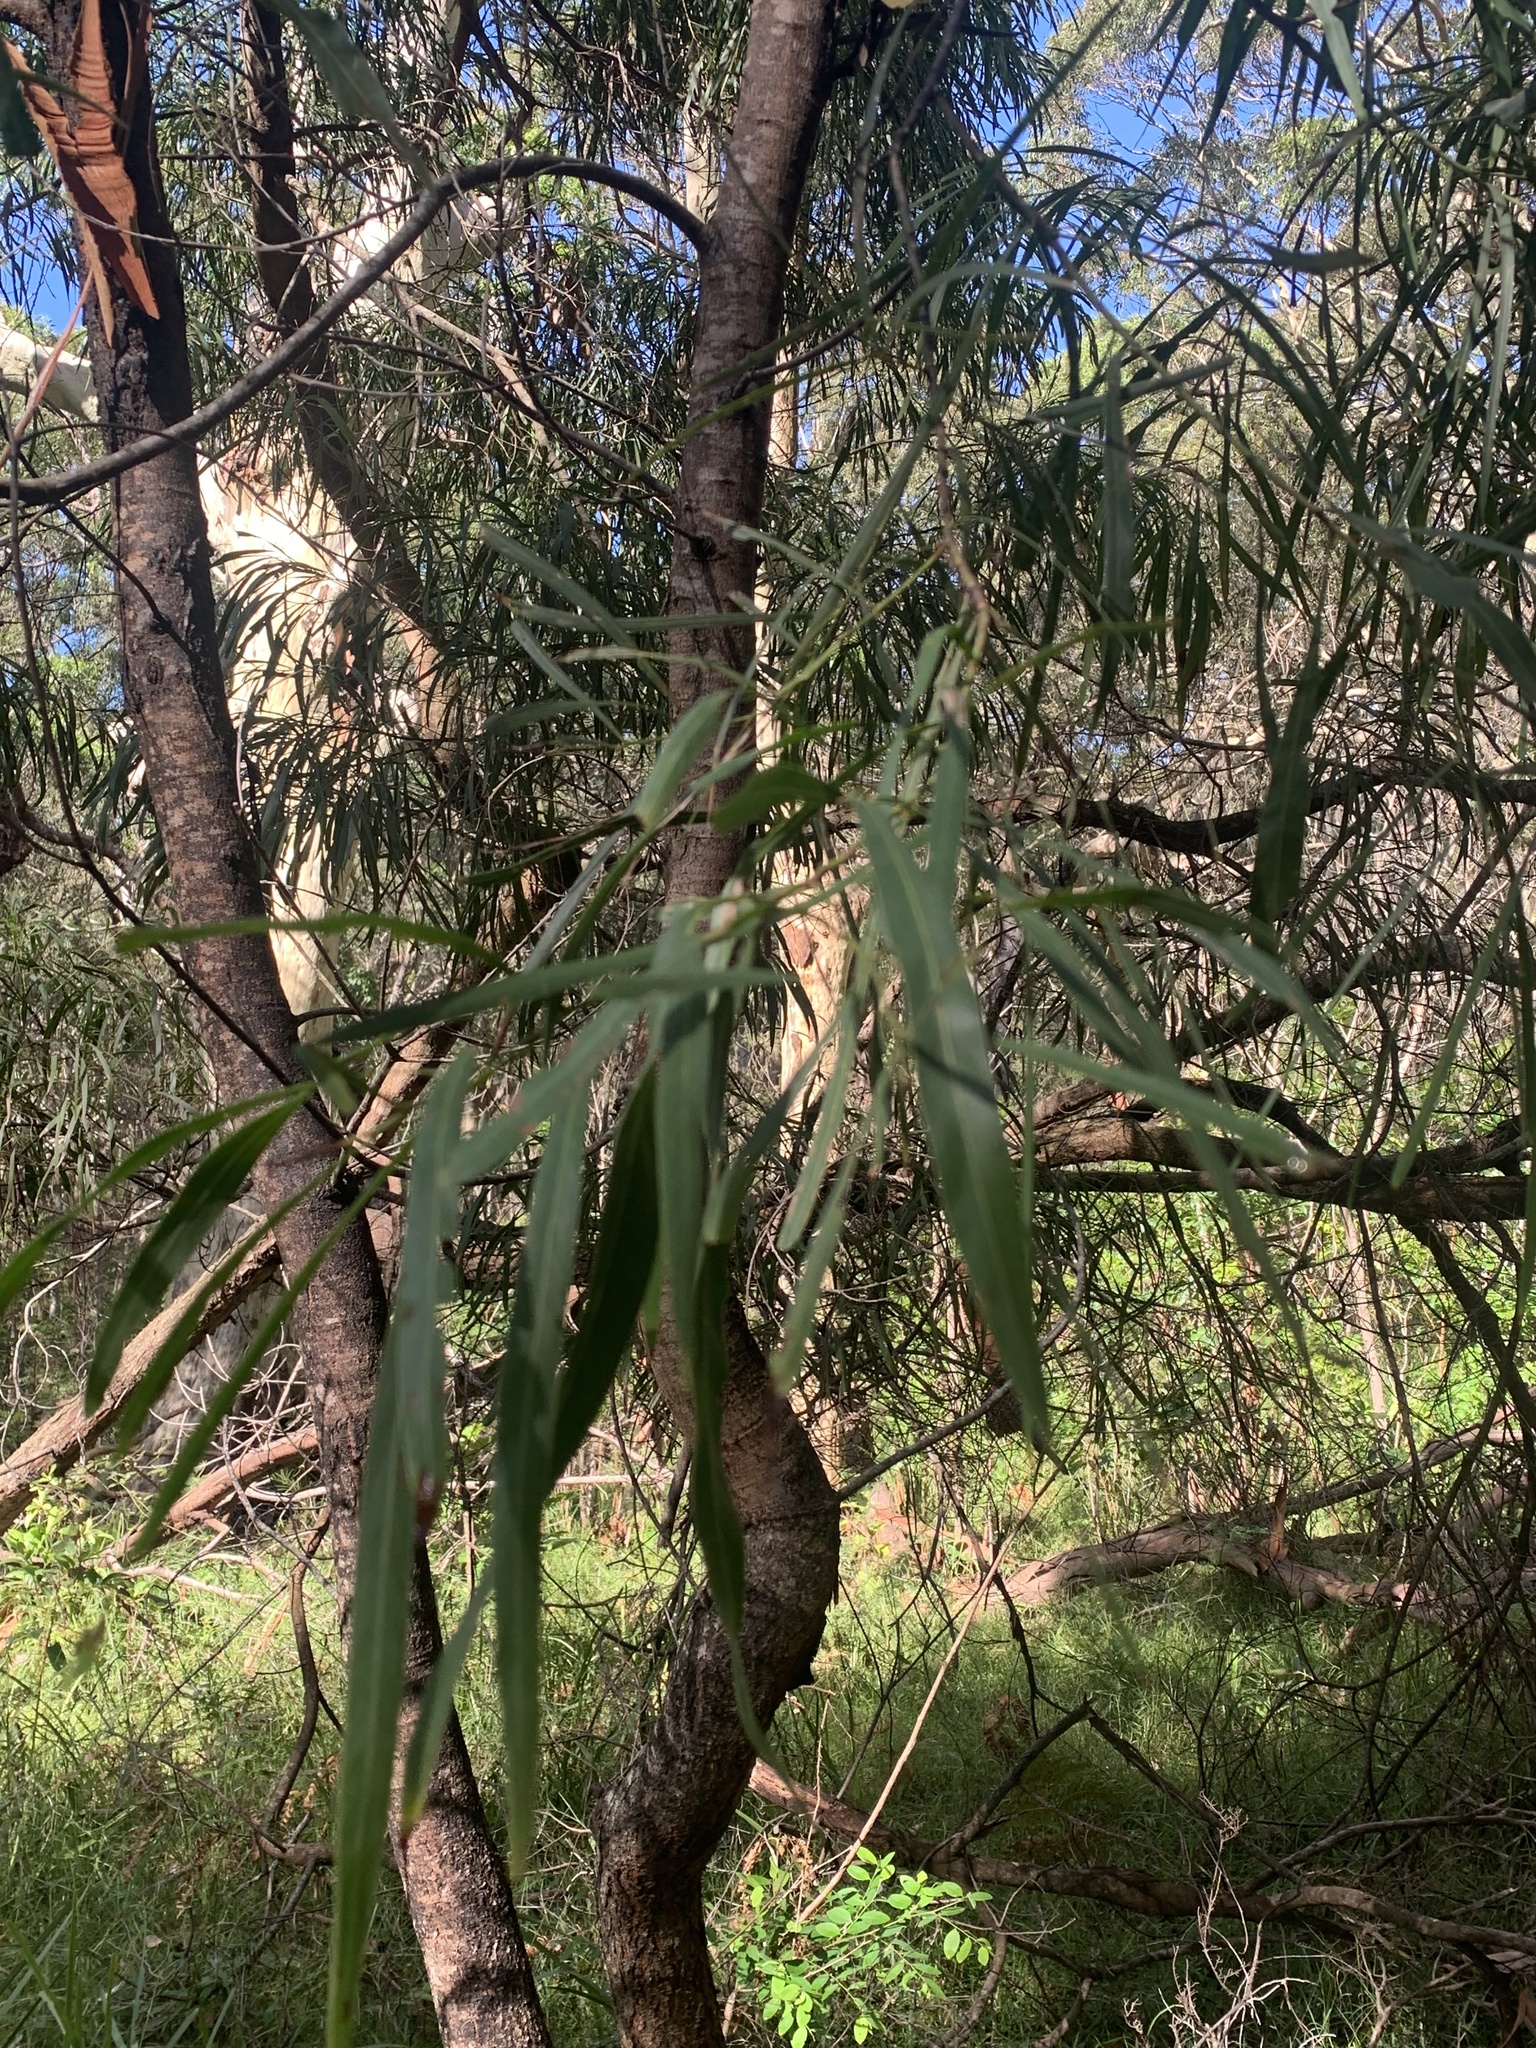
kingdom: Plantae
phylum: Tracheophyta
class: Magnoliopsida
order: Fabales
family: Fabaceae
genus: Acacia
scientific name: Acacia mabellae
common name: Black wattle
